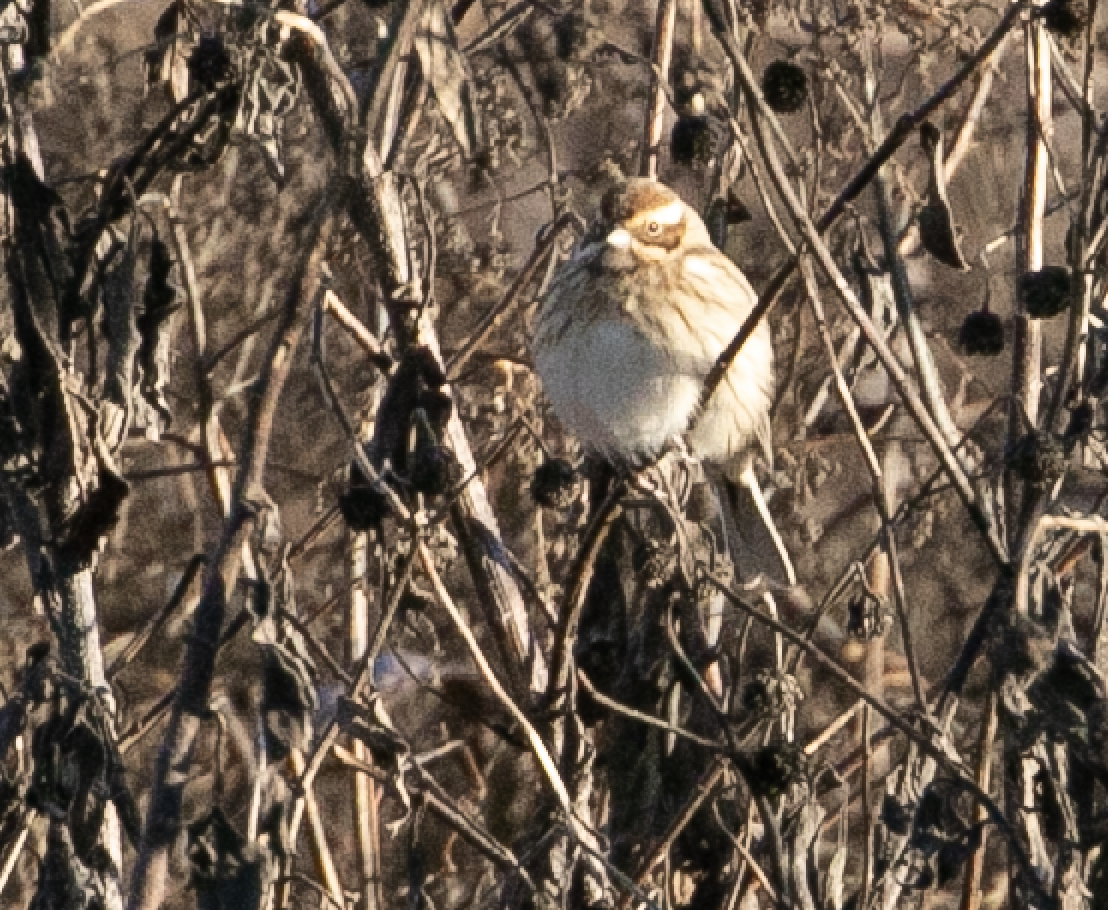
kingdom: Animalia
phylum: Chordata
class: Aves
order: Passeriformes
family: Emberizidae
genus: Emberiza
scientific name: Emberiza schoeniclus
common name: Reed bunting
